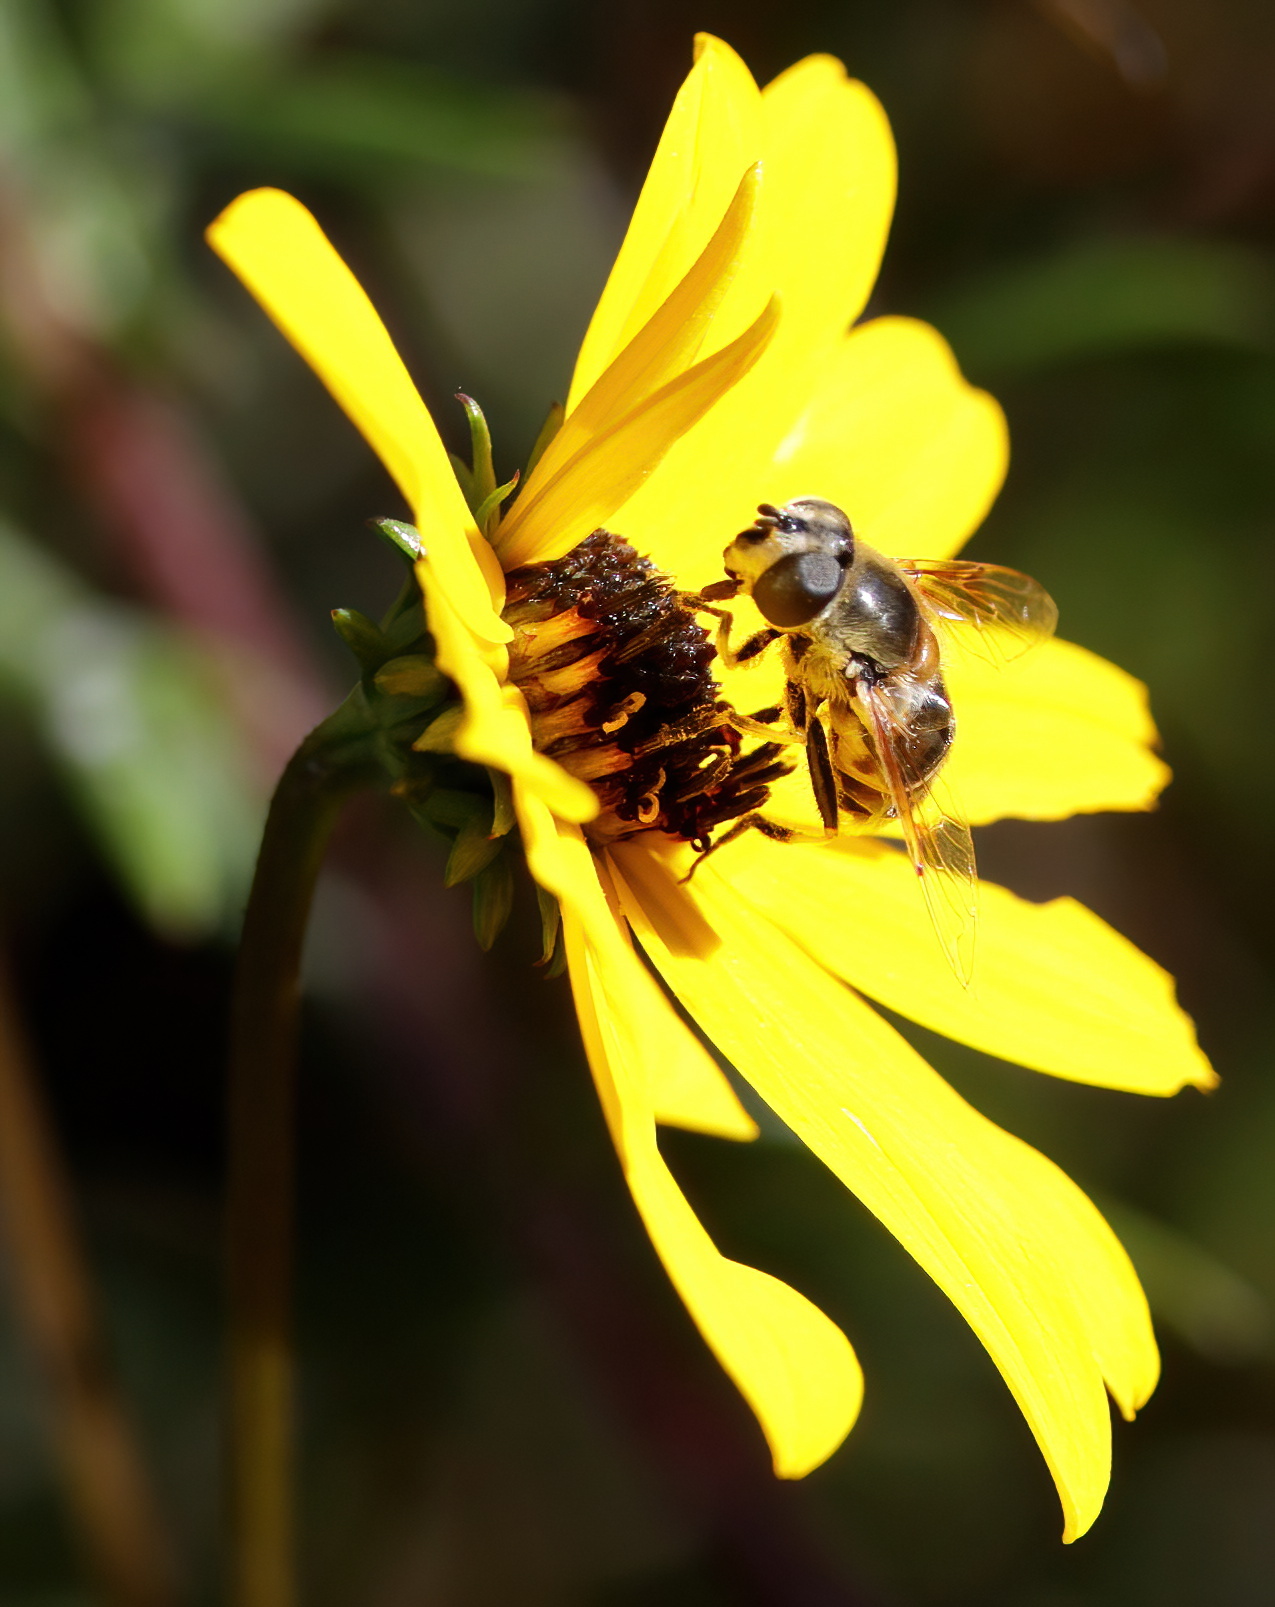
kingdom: Animalia
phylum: Arthropoda
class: Insecta
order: Diptera
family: Syrphidae
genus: Eristalis
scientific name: Eristalis stipator
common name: Yellow-shouldered drone fly
